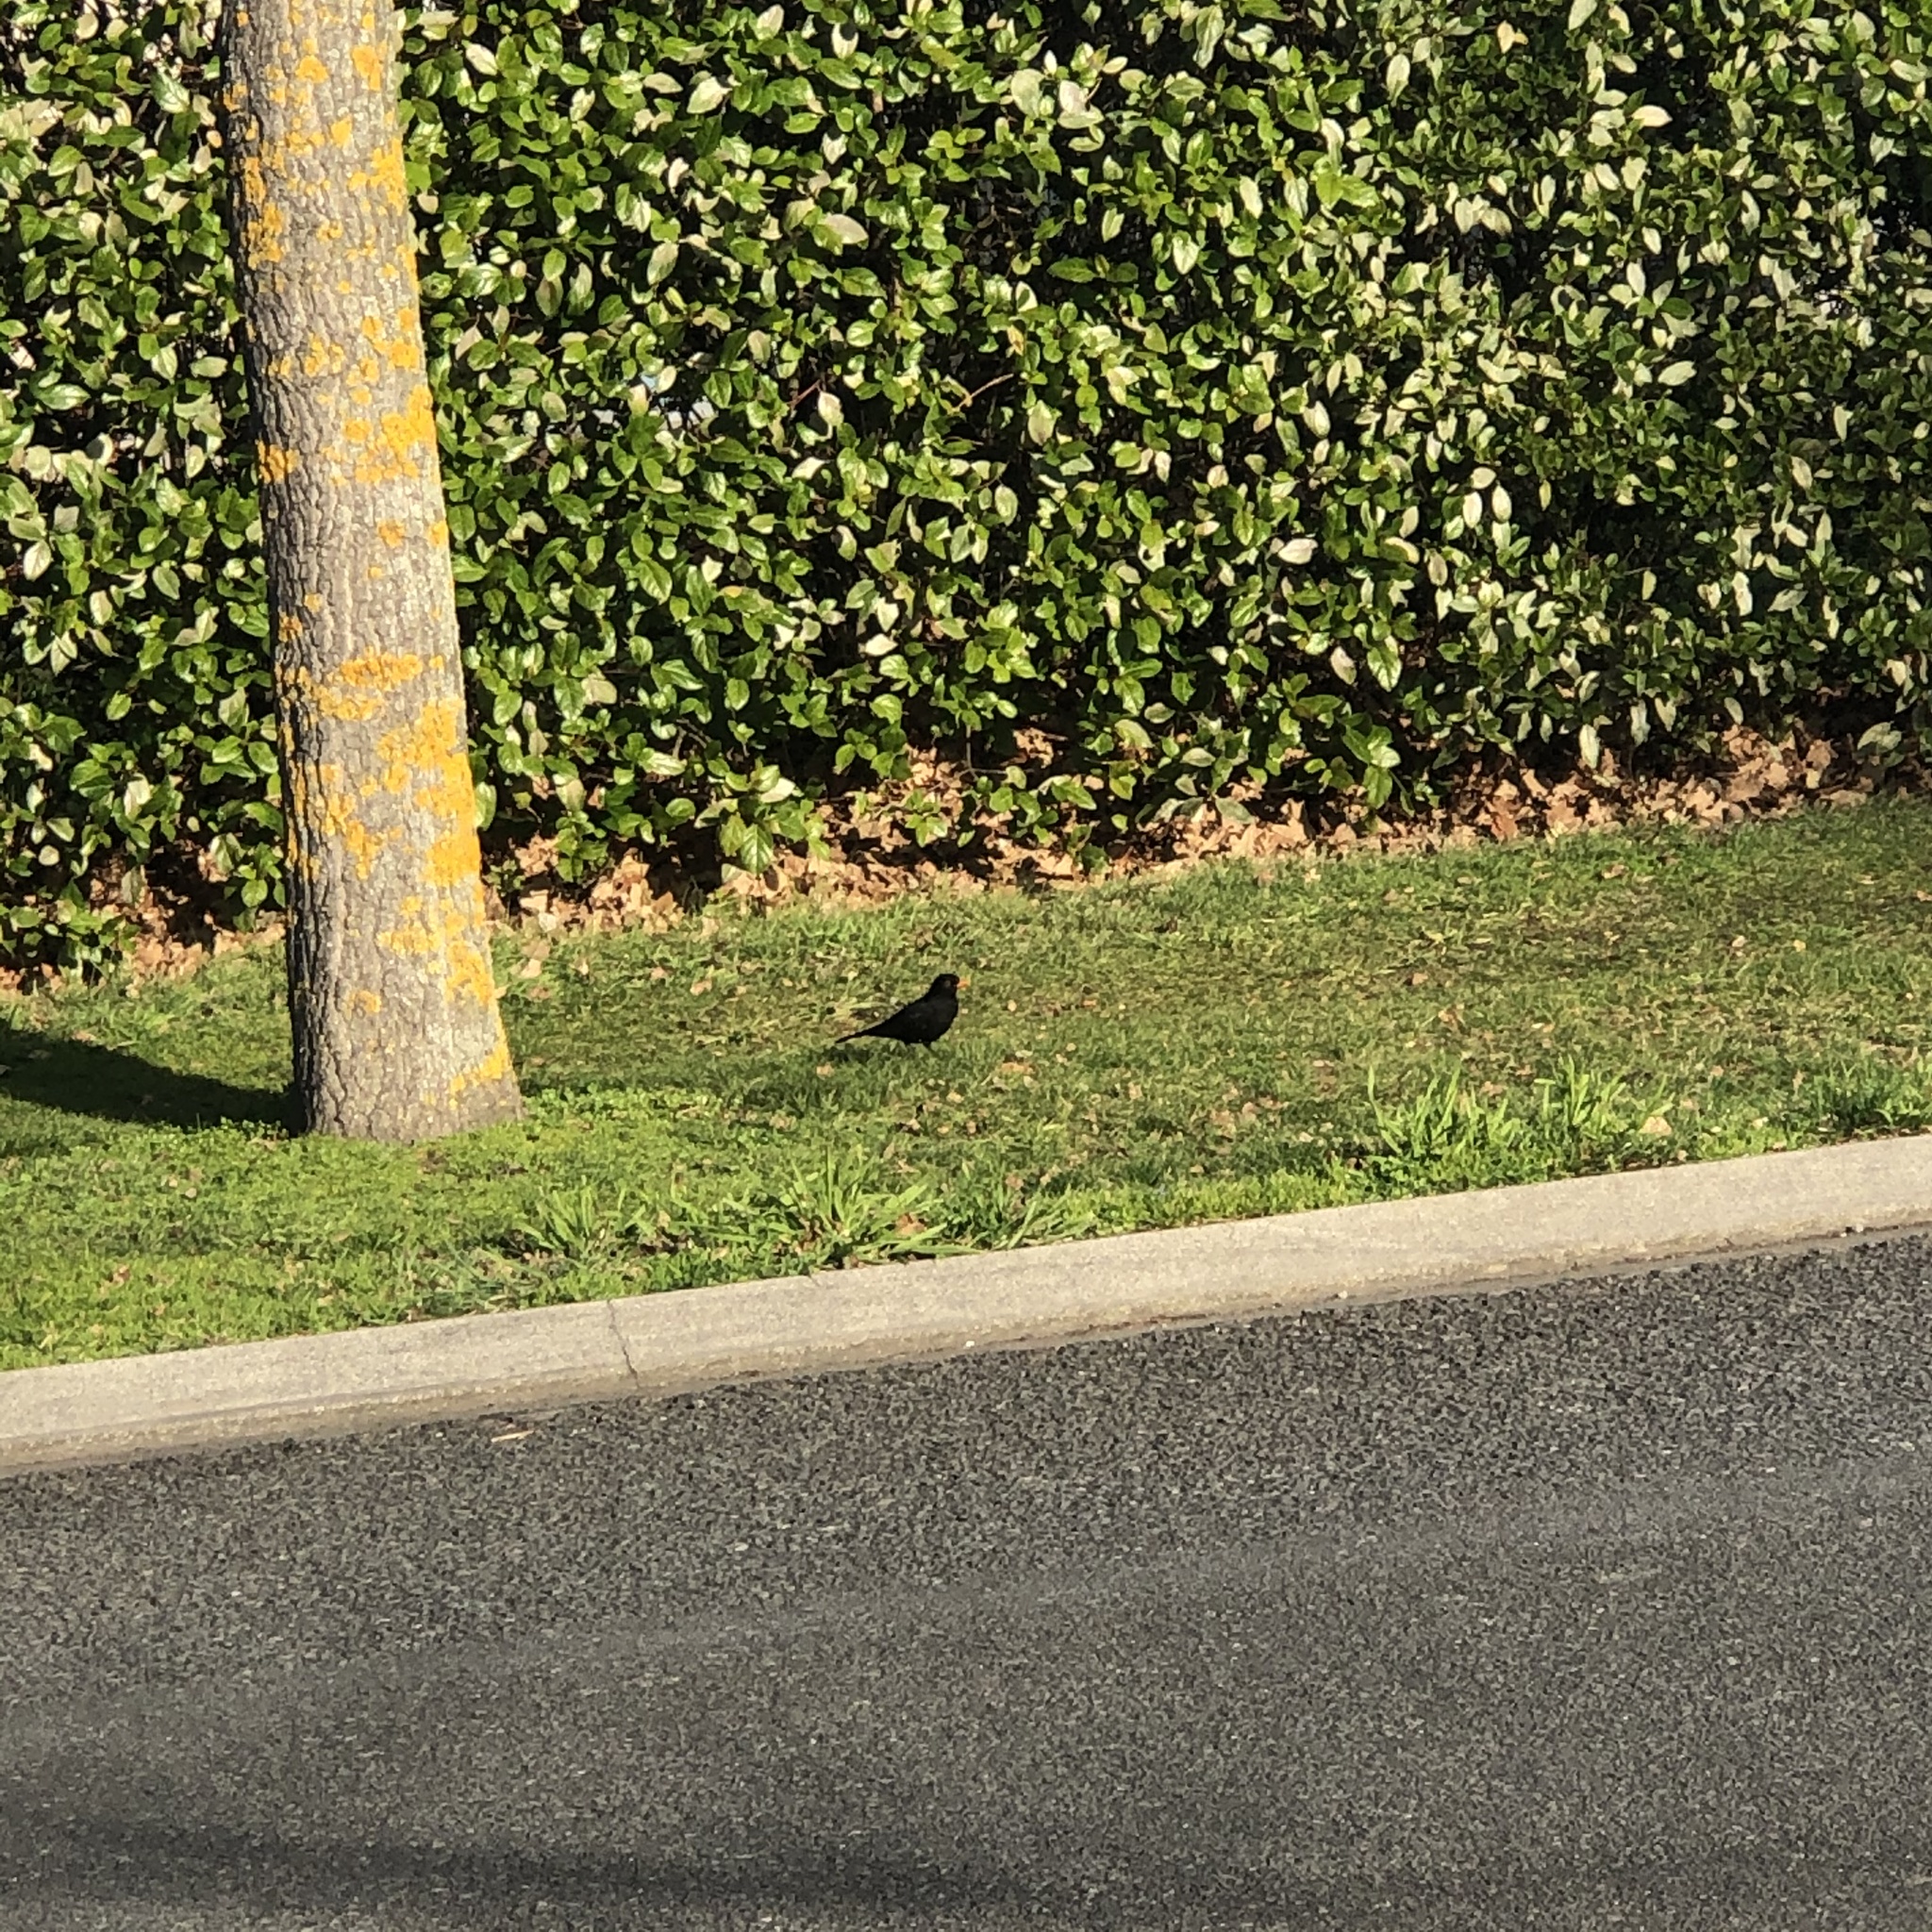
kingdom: Animalia
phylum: Chordata
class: Aves
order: Passeriformes
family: Turdidae
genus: Turdus
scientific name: Turdus merula
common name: Common blackbird
